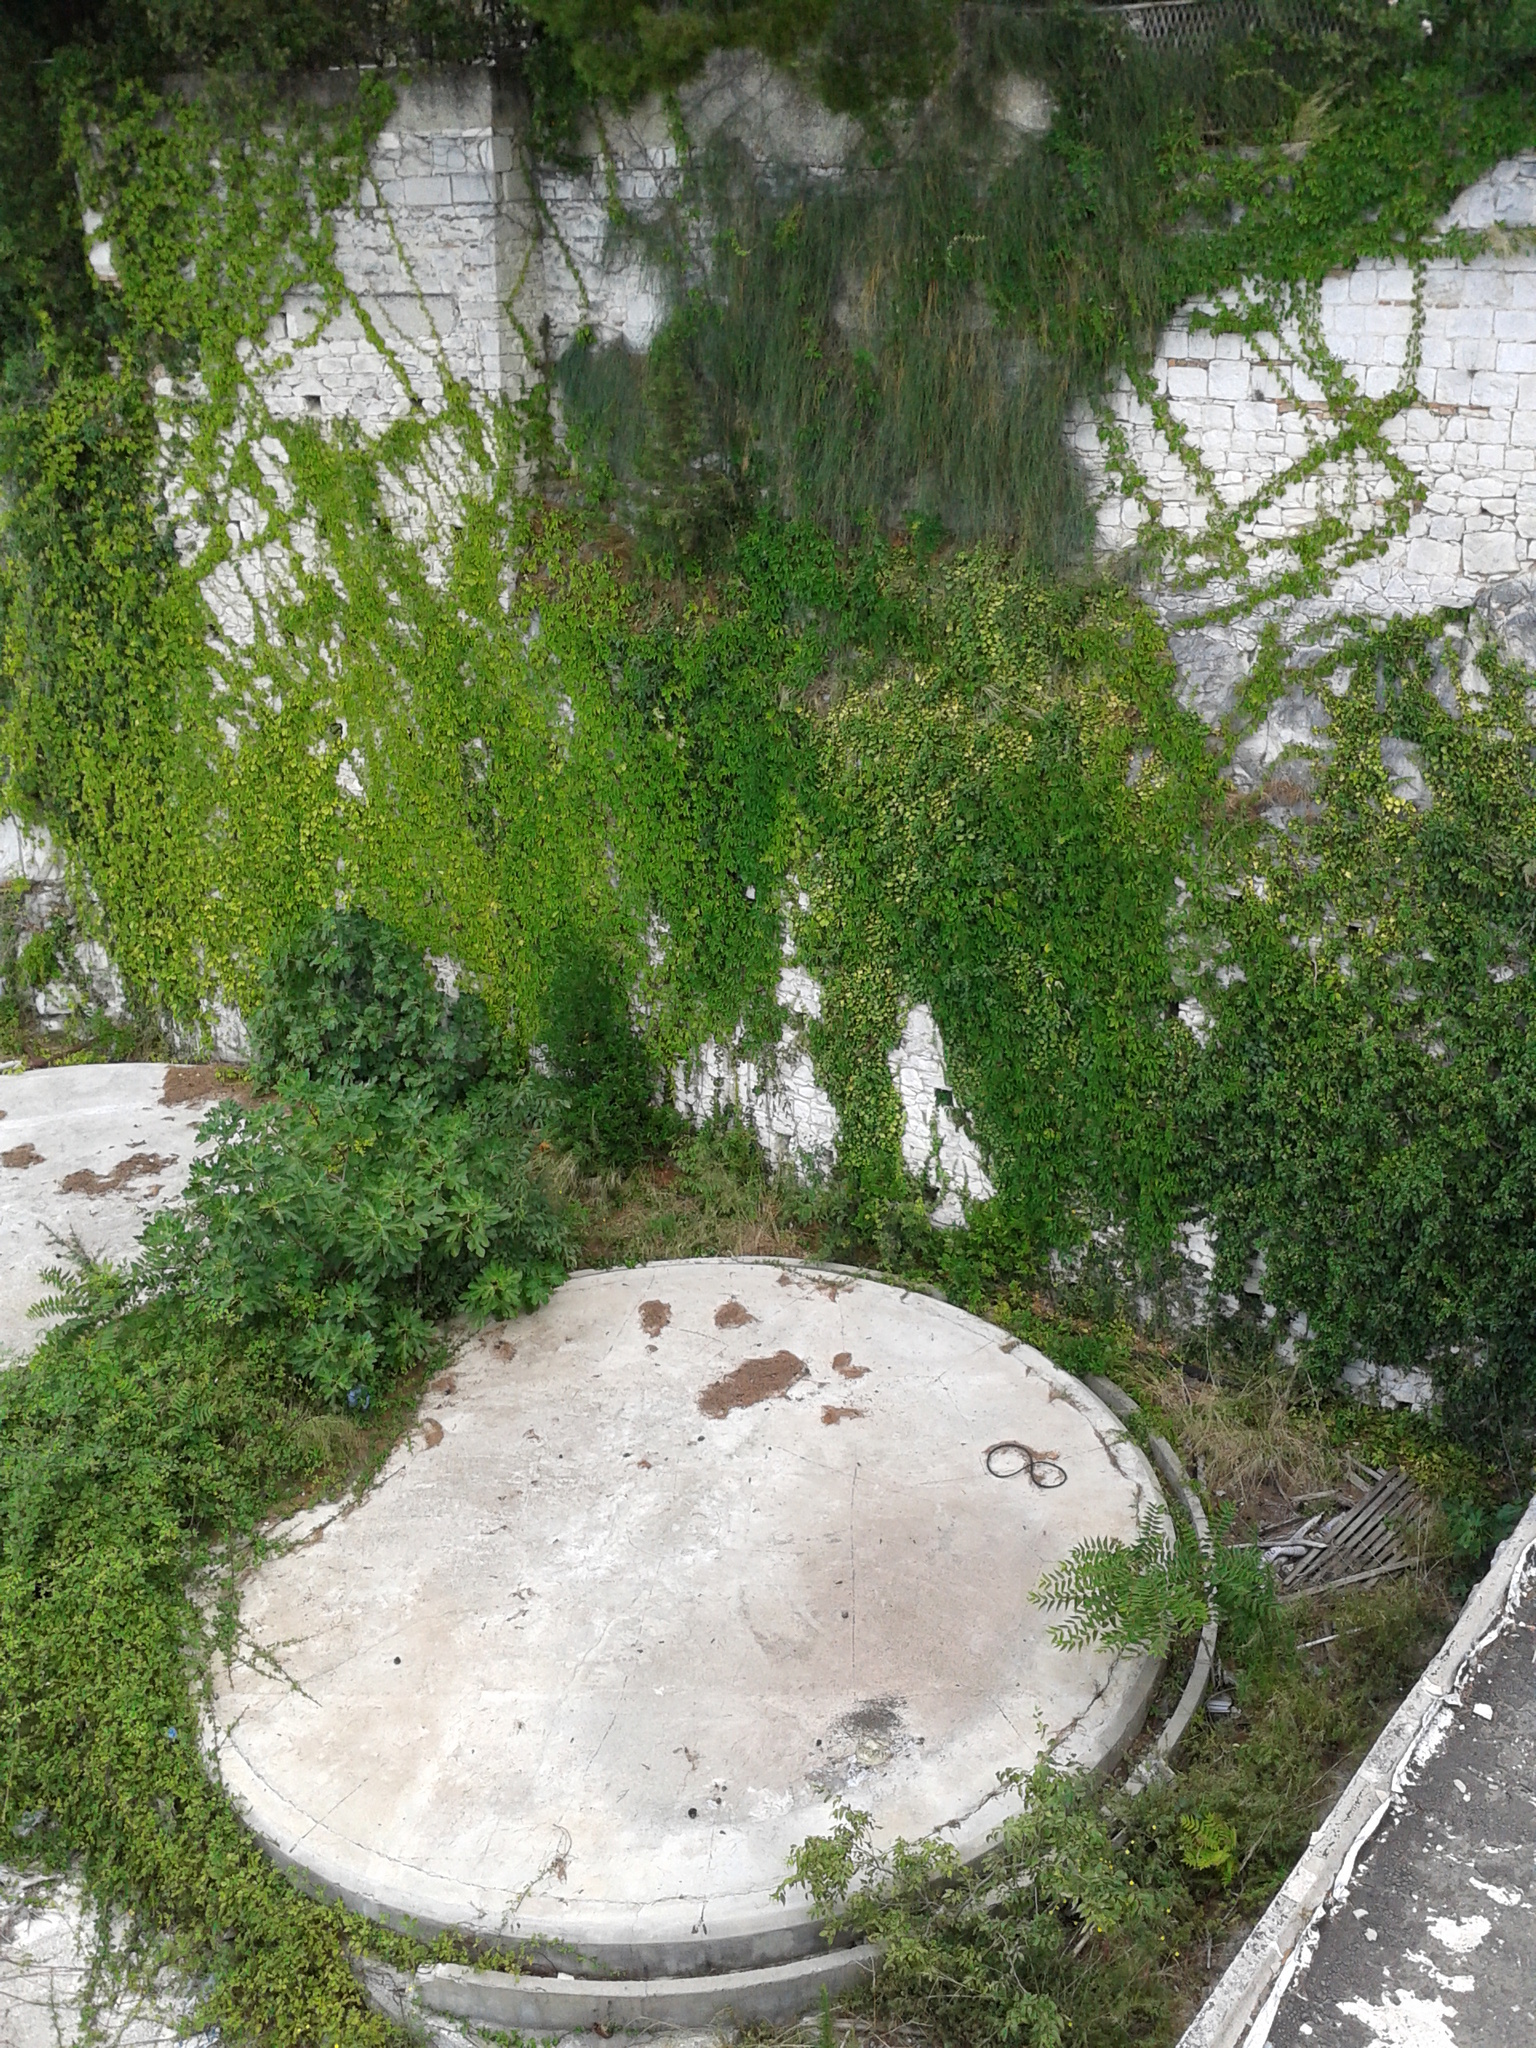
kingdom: Plantae
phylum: Tracheophyta
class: Magnoliopsida
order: Vitales
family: Vitaceae
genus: Parthenocissus
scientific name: Parthenocissus quinquefolia
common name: Virginia-creeper
